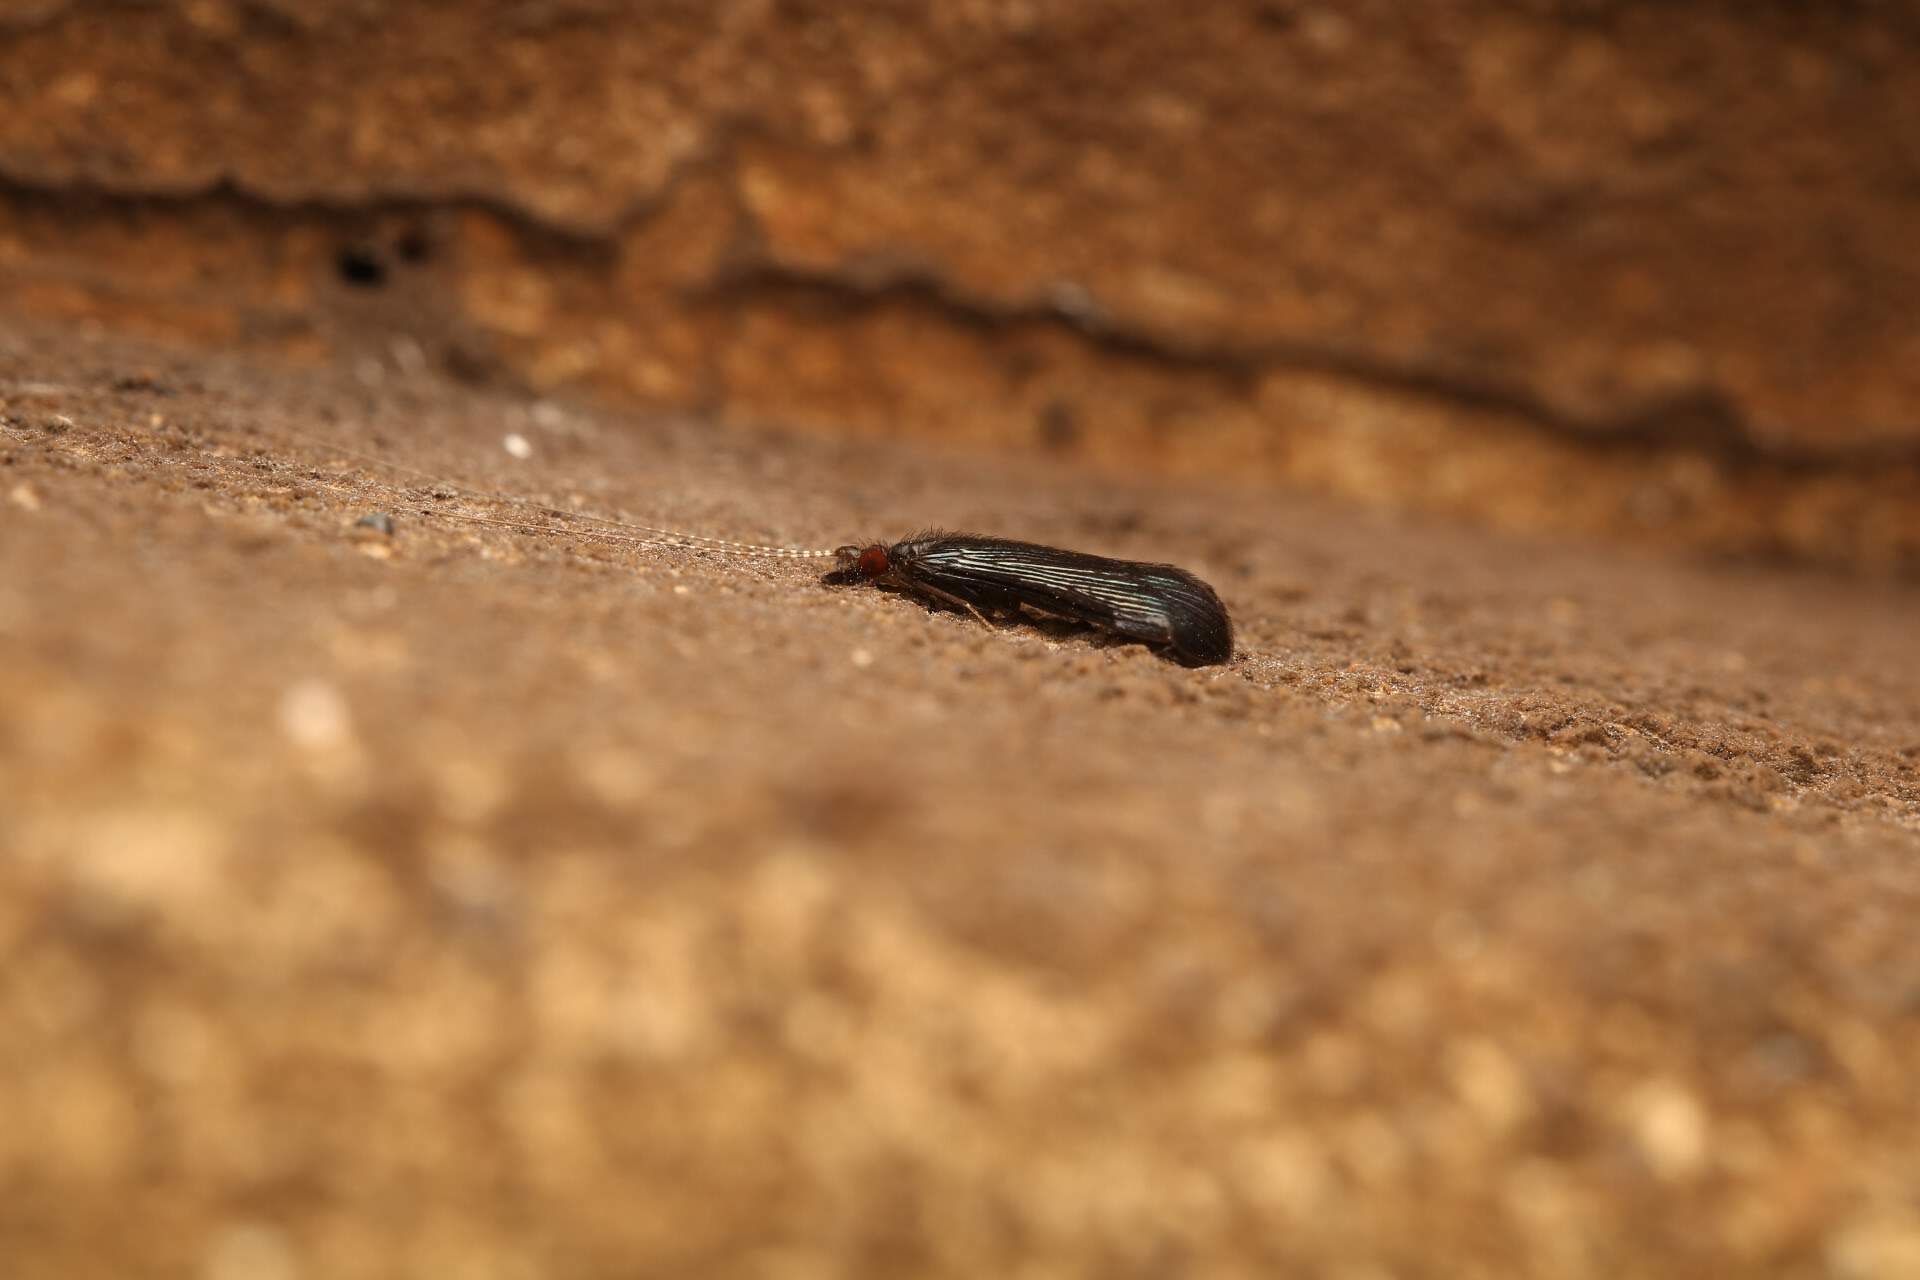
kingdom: Animalia
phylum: Arthropoda
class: Insecta
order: Trichoptera
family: Leptoceridae
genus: Mystacides
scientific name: Mystacides sepulchralis
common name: Black dancer caddisfly
